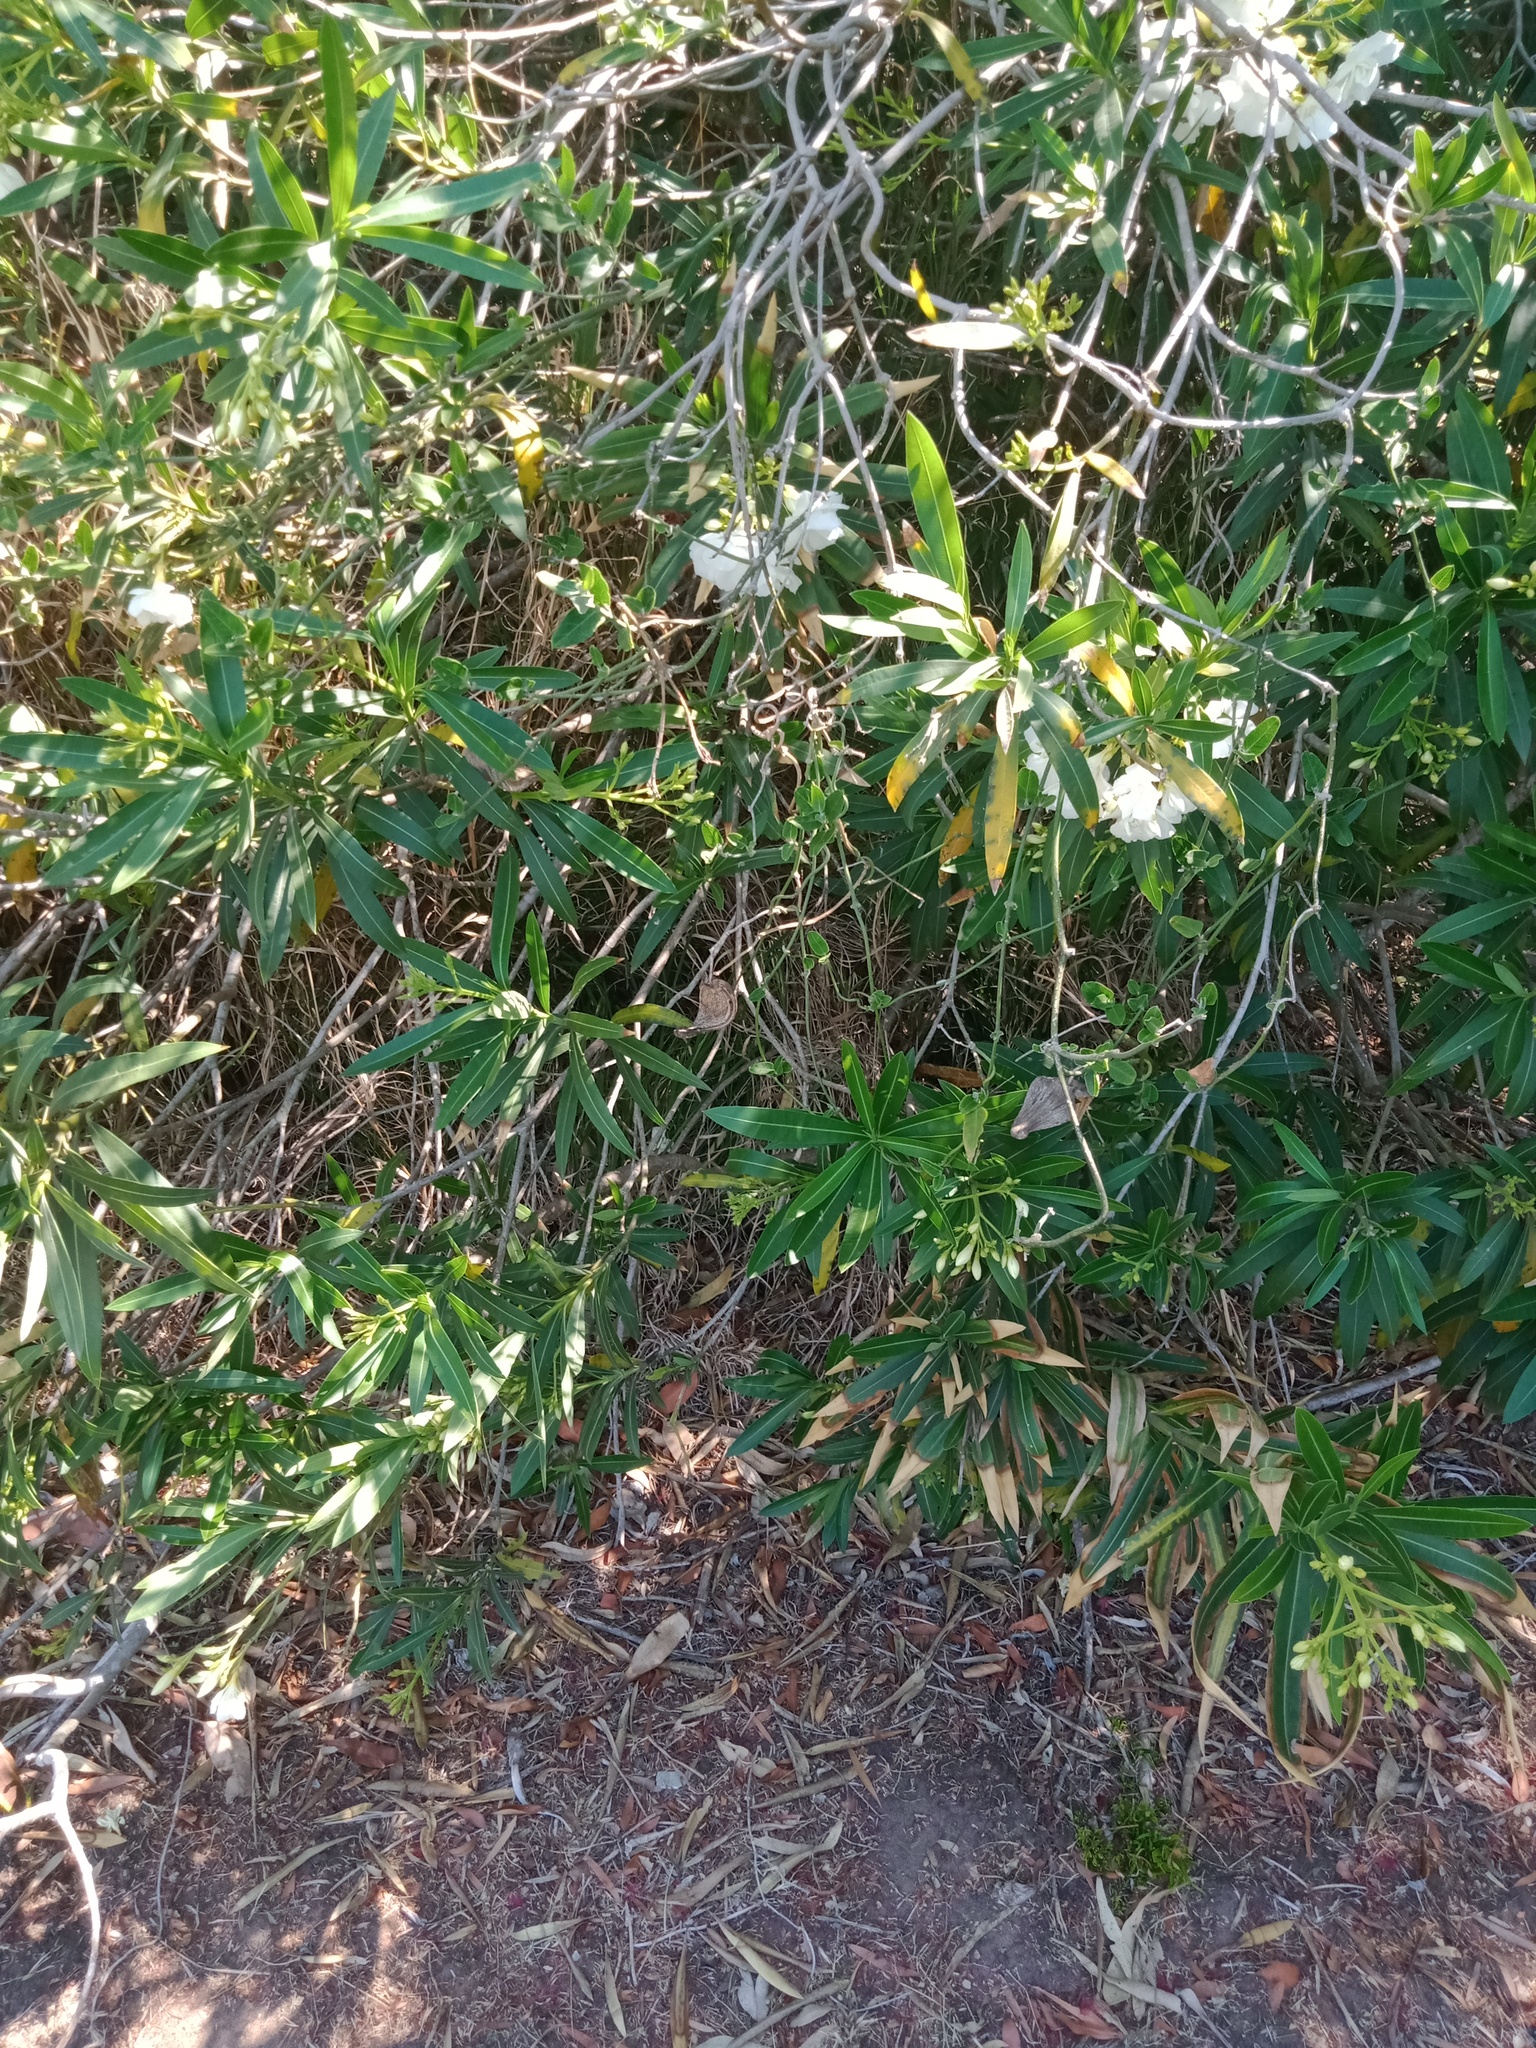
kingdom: Plantae
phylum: Tracheophyta
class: Magnoliopsida
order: Gentianales
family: Apocynaceae
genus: Araujia
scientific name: Araujia sericifera
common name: White bladderflower
